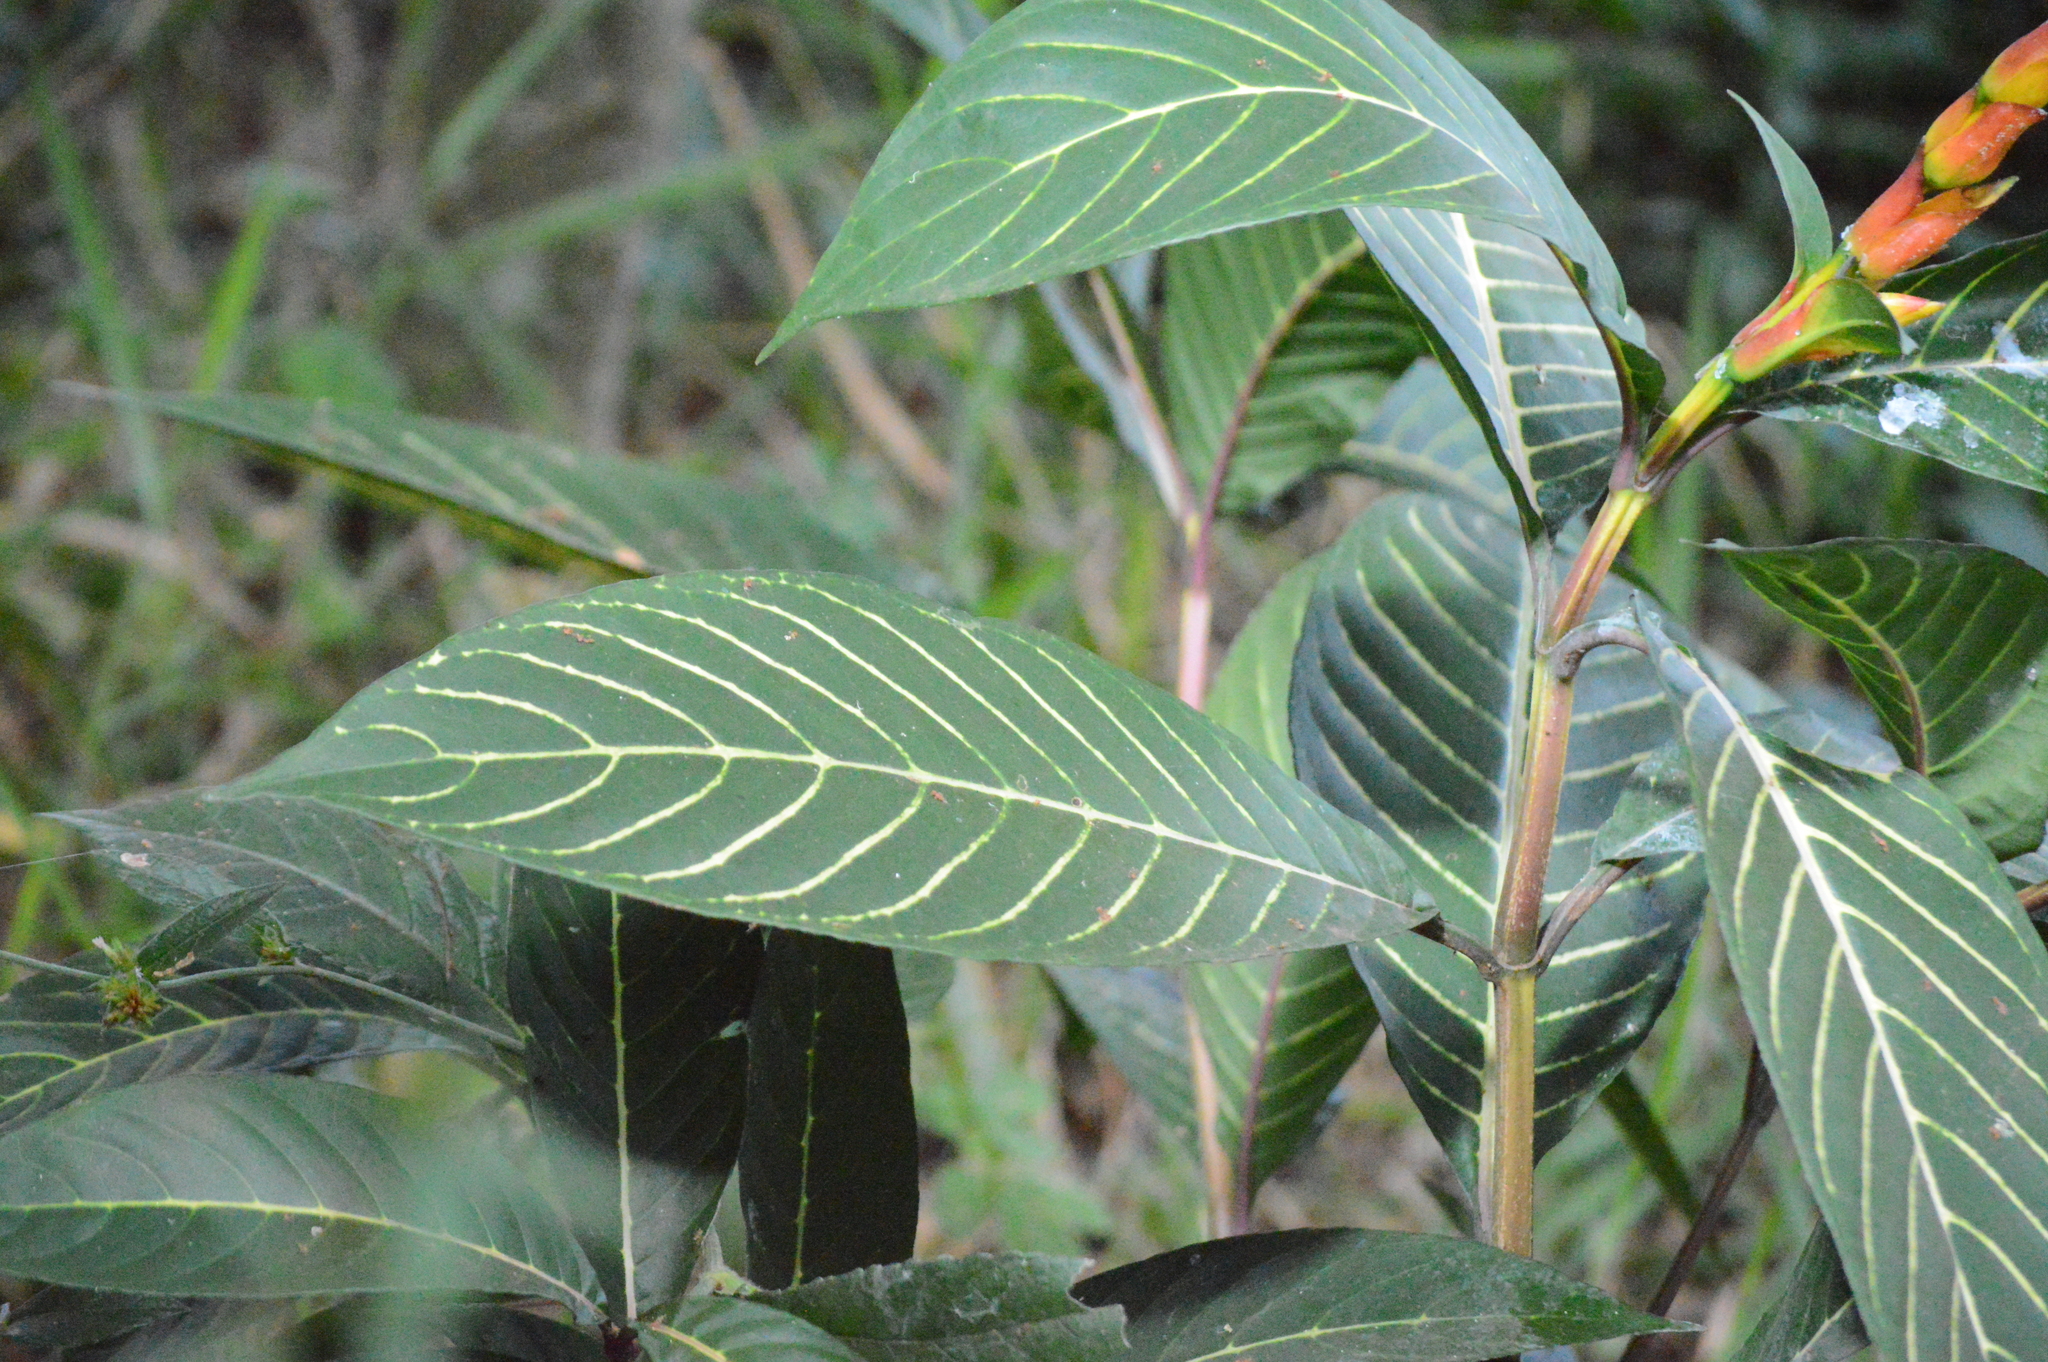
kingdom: Plantae
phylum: Tracheophyta
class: Magnoliopsida
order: Lamiales
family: Acanthaceae
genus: Sanchezia
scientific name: Sanchezia oblonga
